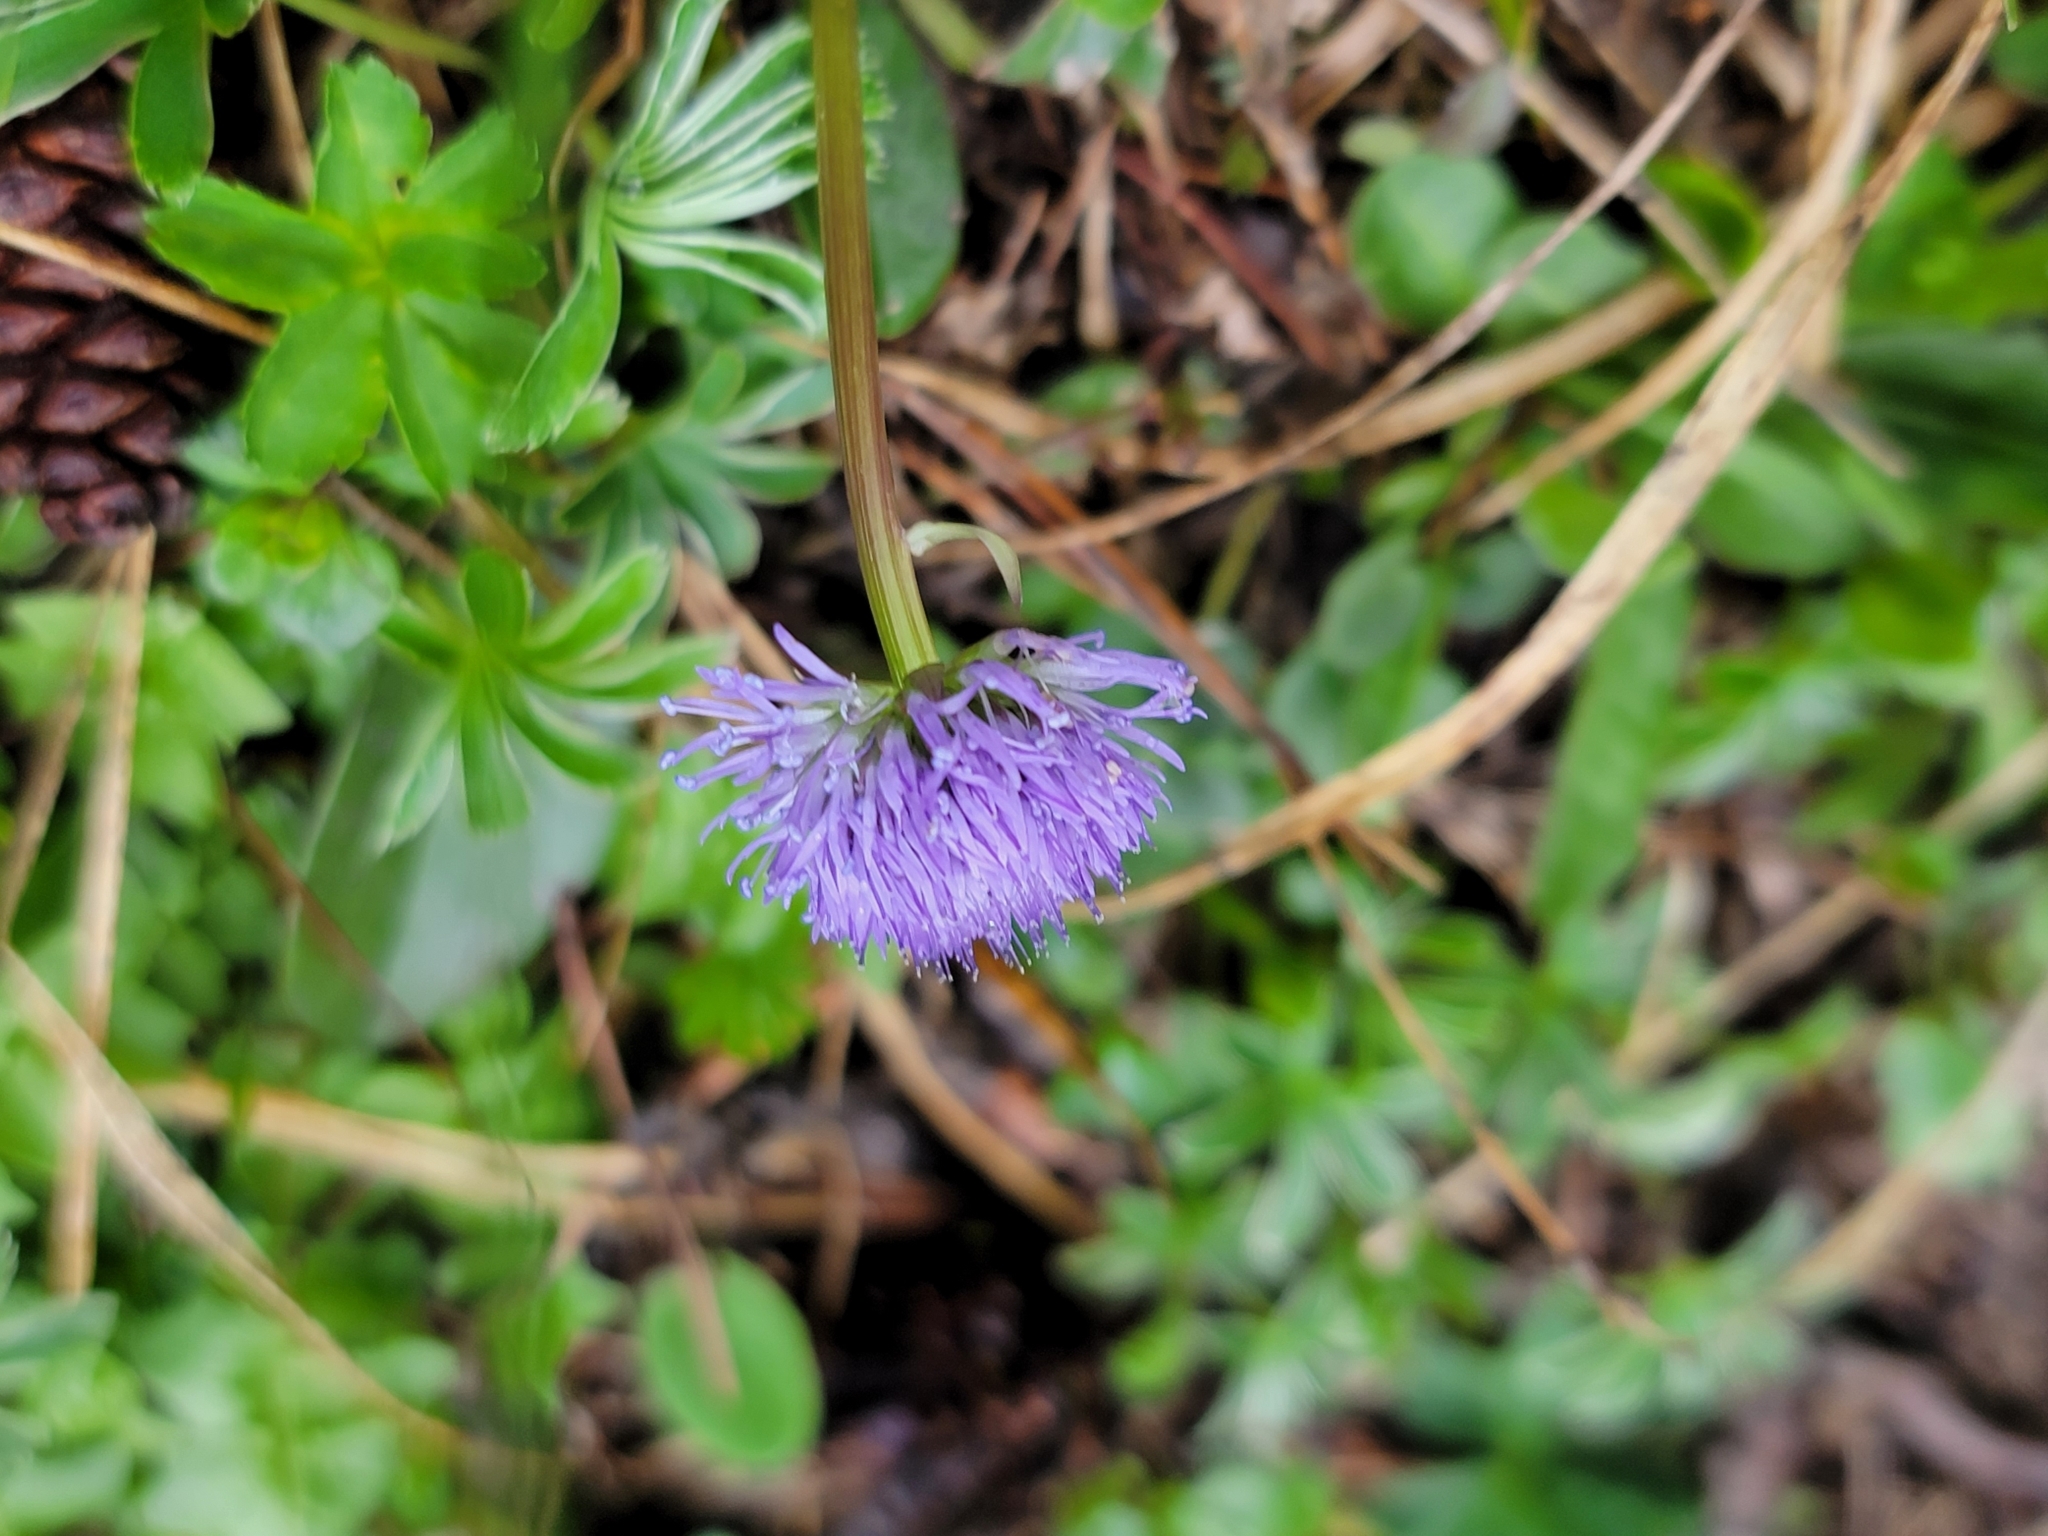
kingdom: Plantae
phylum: Tracheophyta
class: Magnoliopsida
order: Lamiales
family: Plantaginaceae
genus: Globularia
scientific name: Globularia nudicaulis
